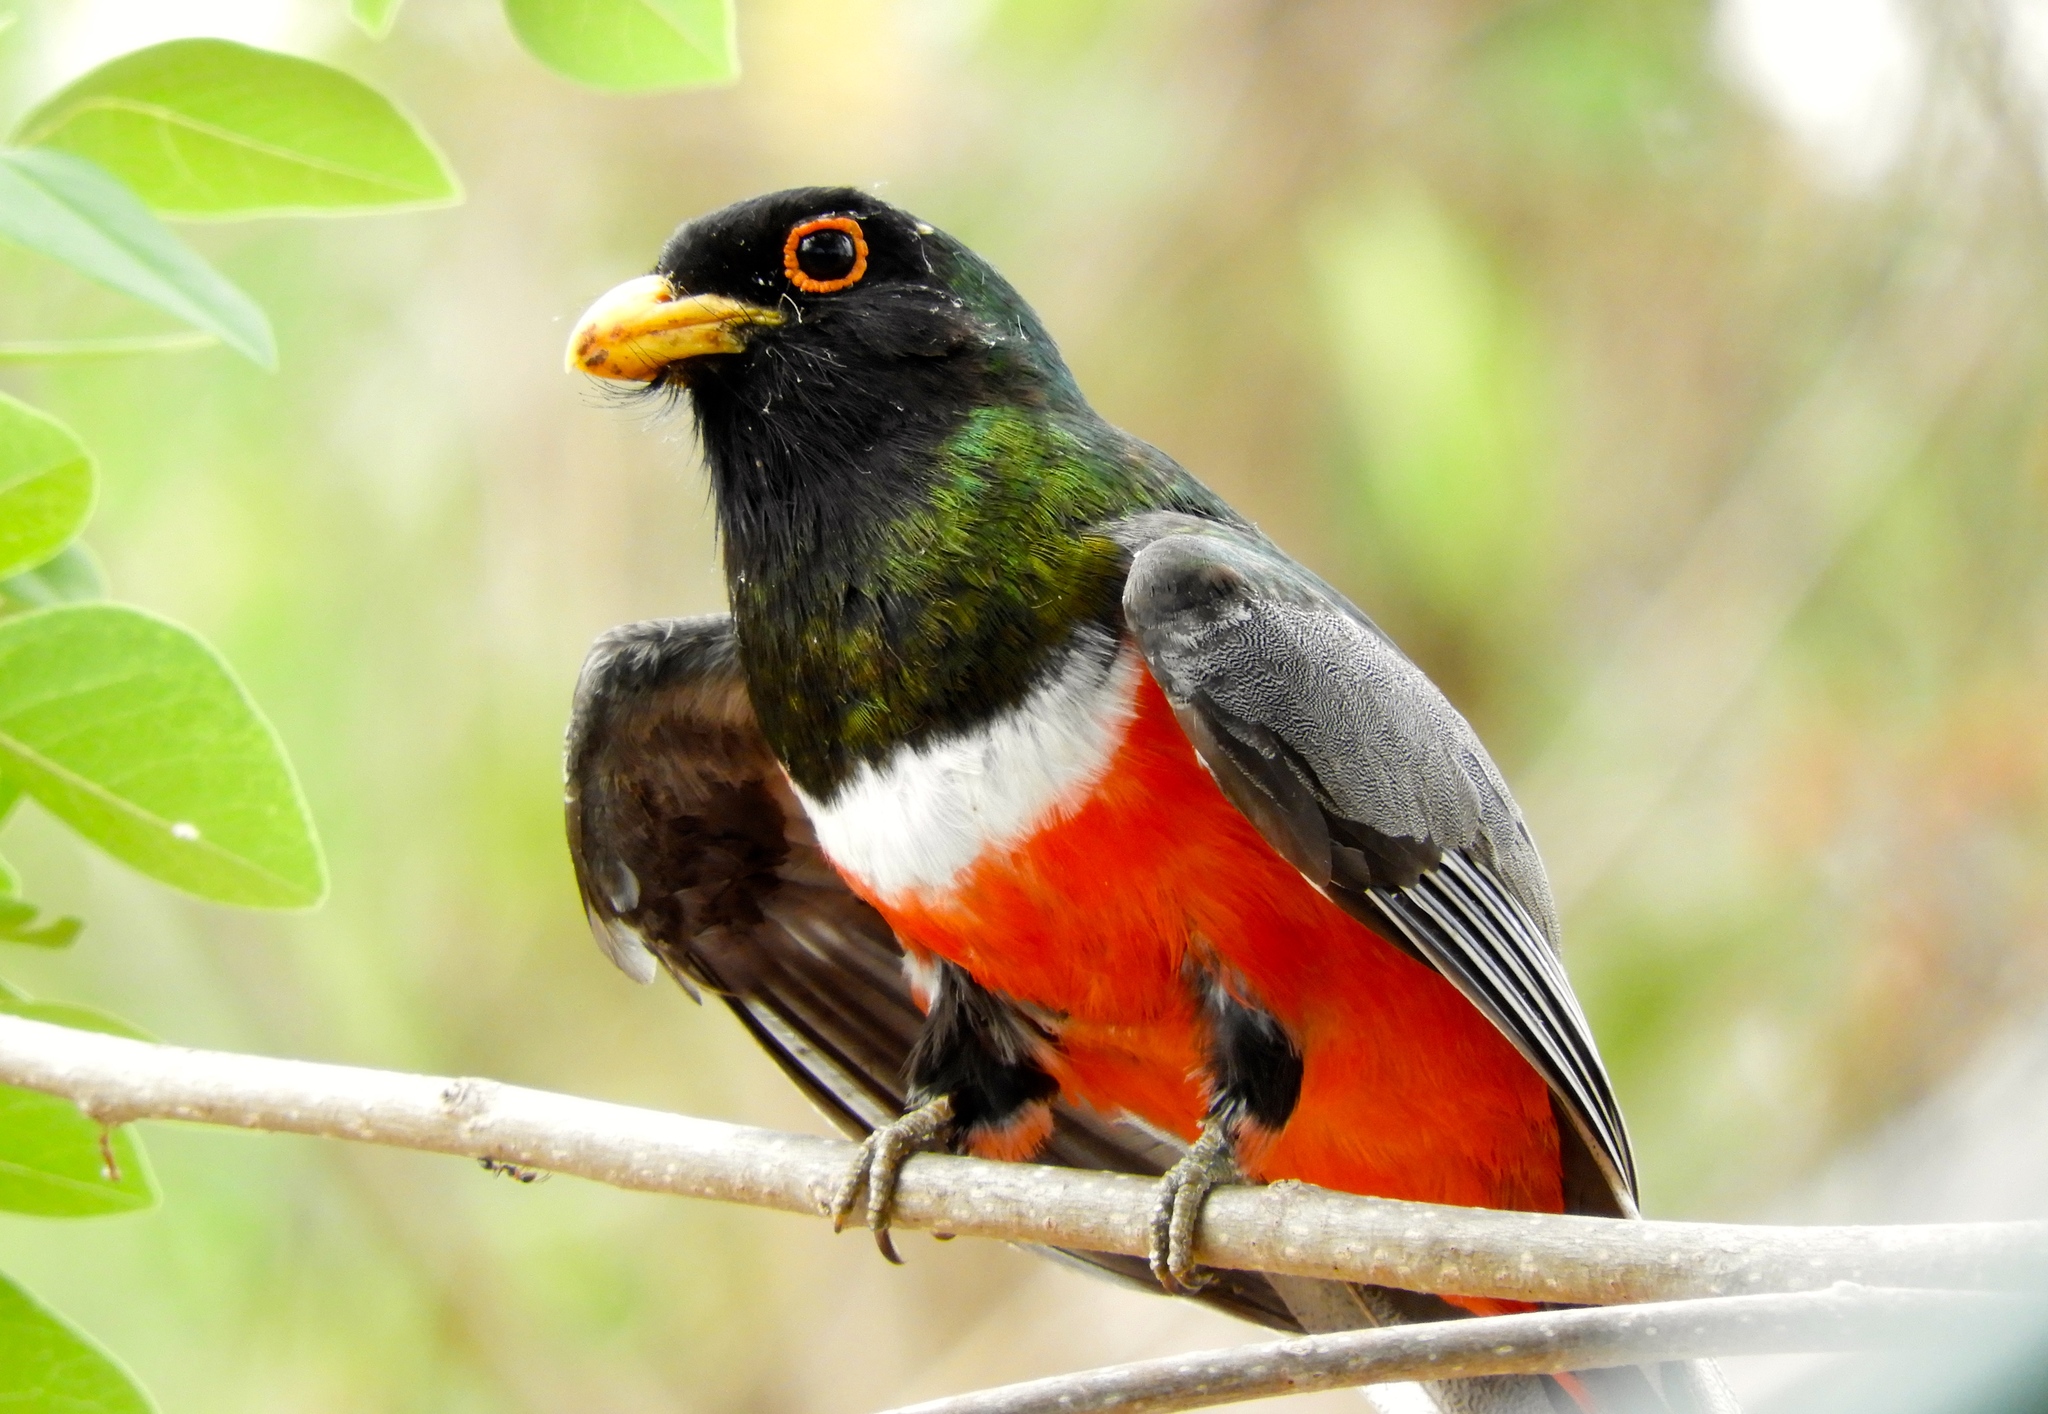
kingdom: Animalia
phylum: Chordata
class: Aves
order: Trogoniformes
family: Trogonidae
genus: Trogon
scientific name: Trogon elegans
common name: Elegant trogon
